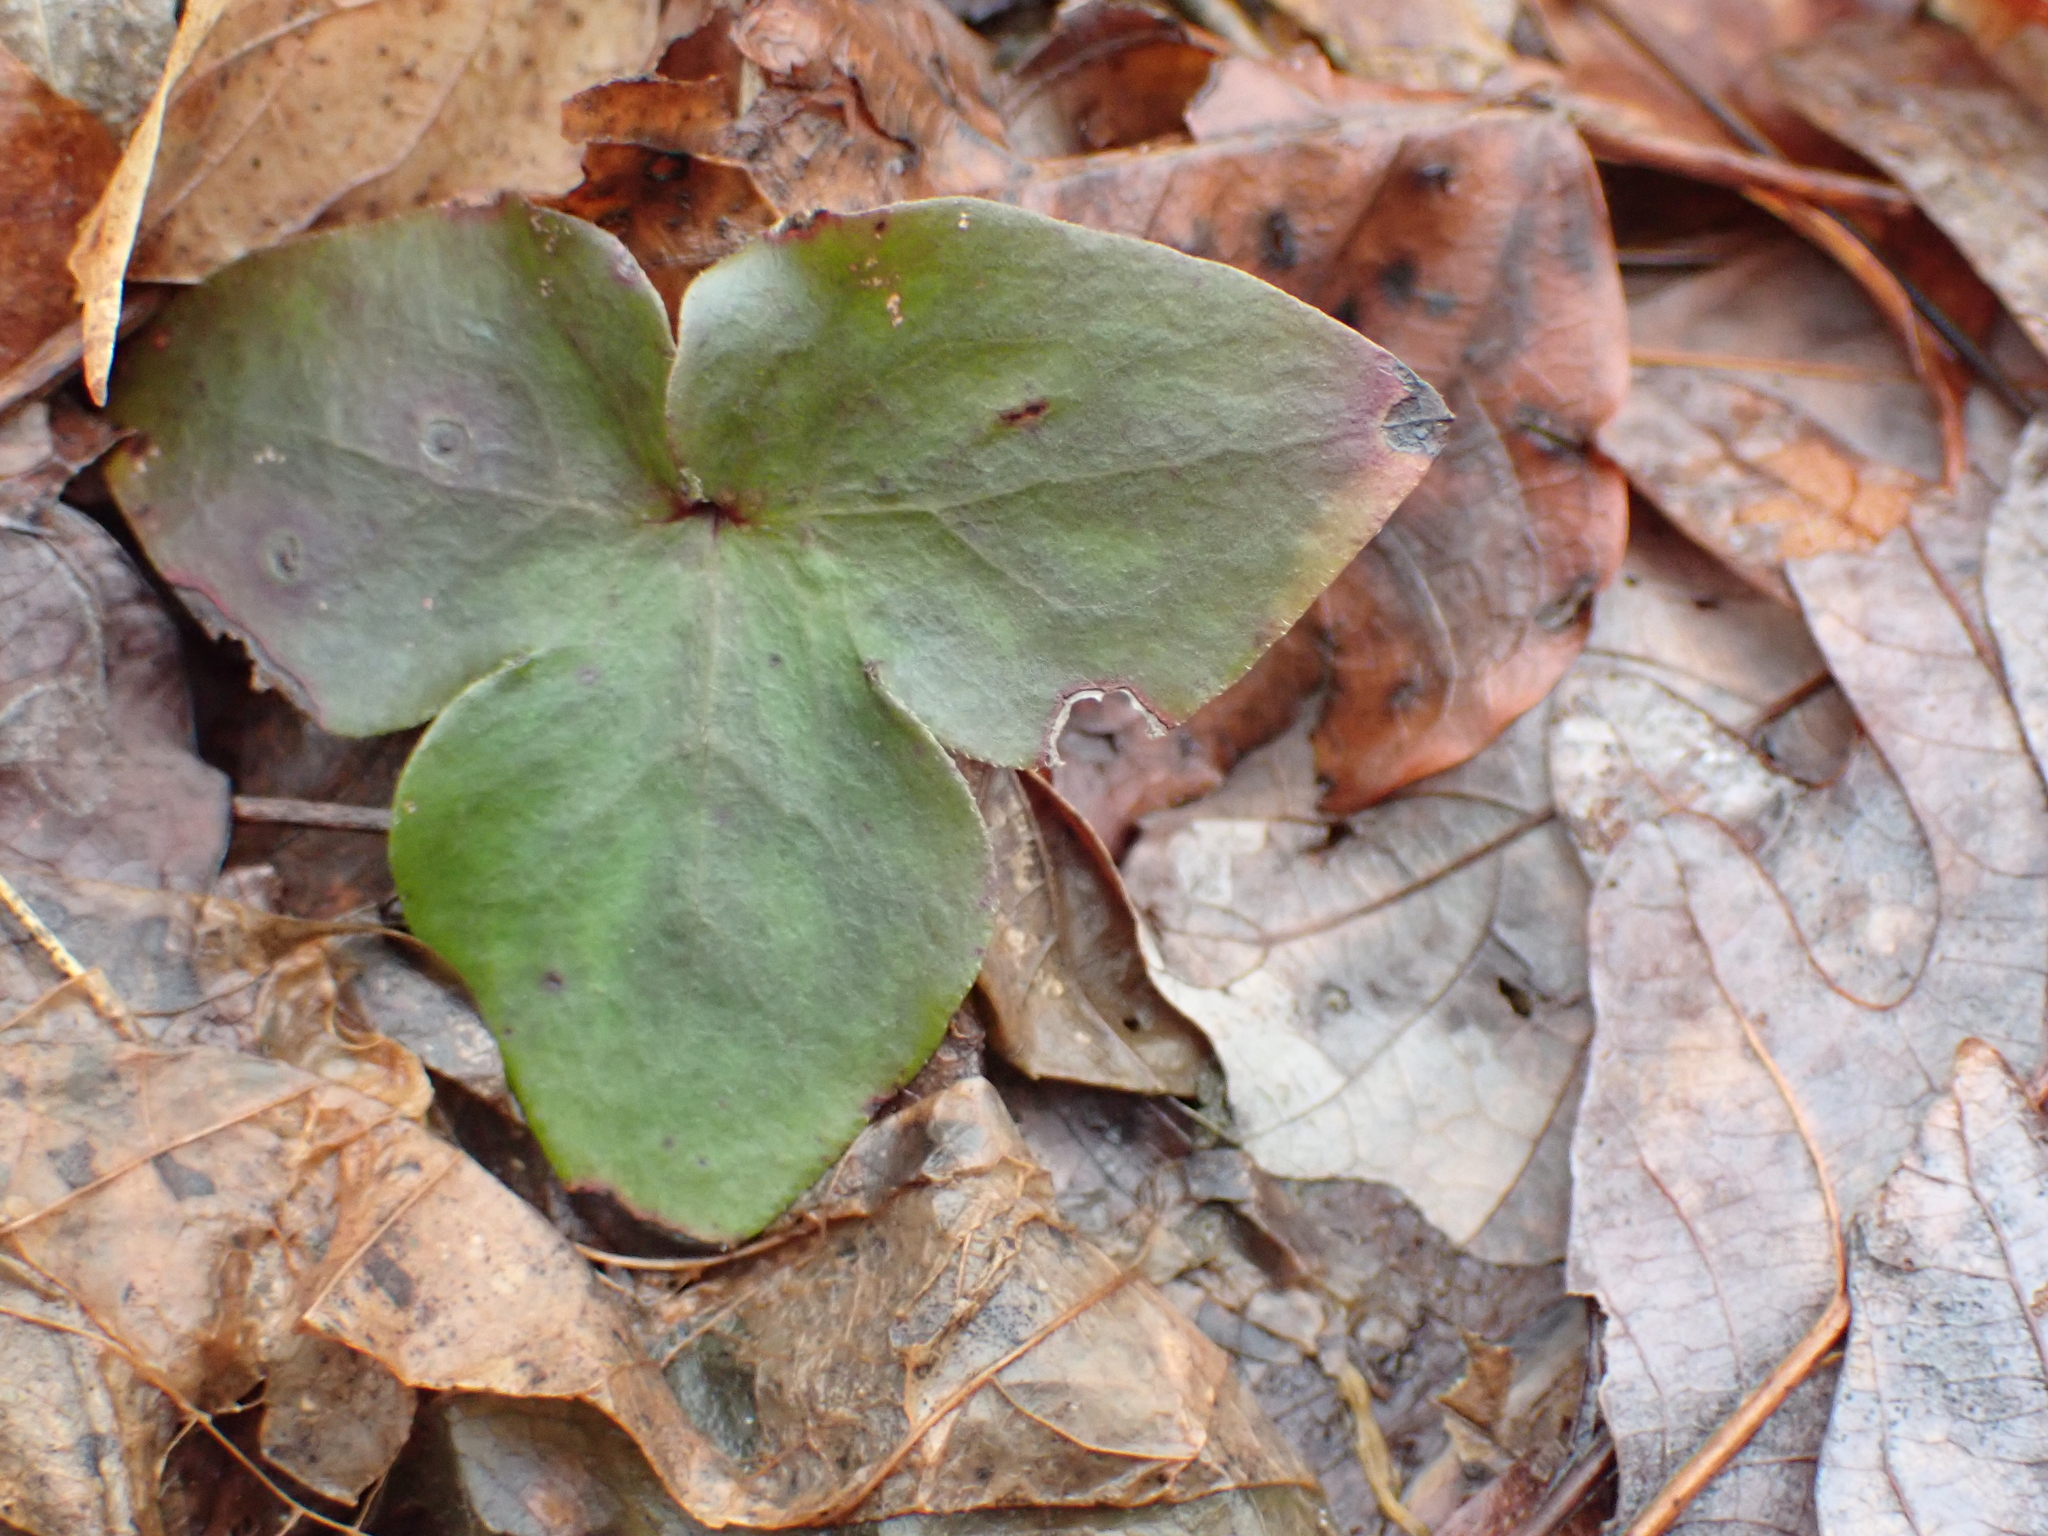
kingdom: Plantae
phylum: Tracheophyta
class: Magnoliopsida
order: Ranunculales
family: Ranunculaceae
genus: Hepatica
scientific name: Hepatica acutiloba
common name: Sharp-lobed hepatica
